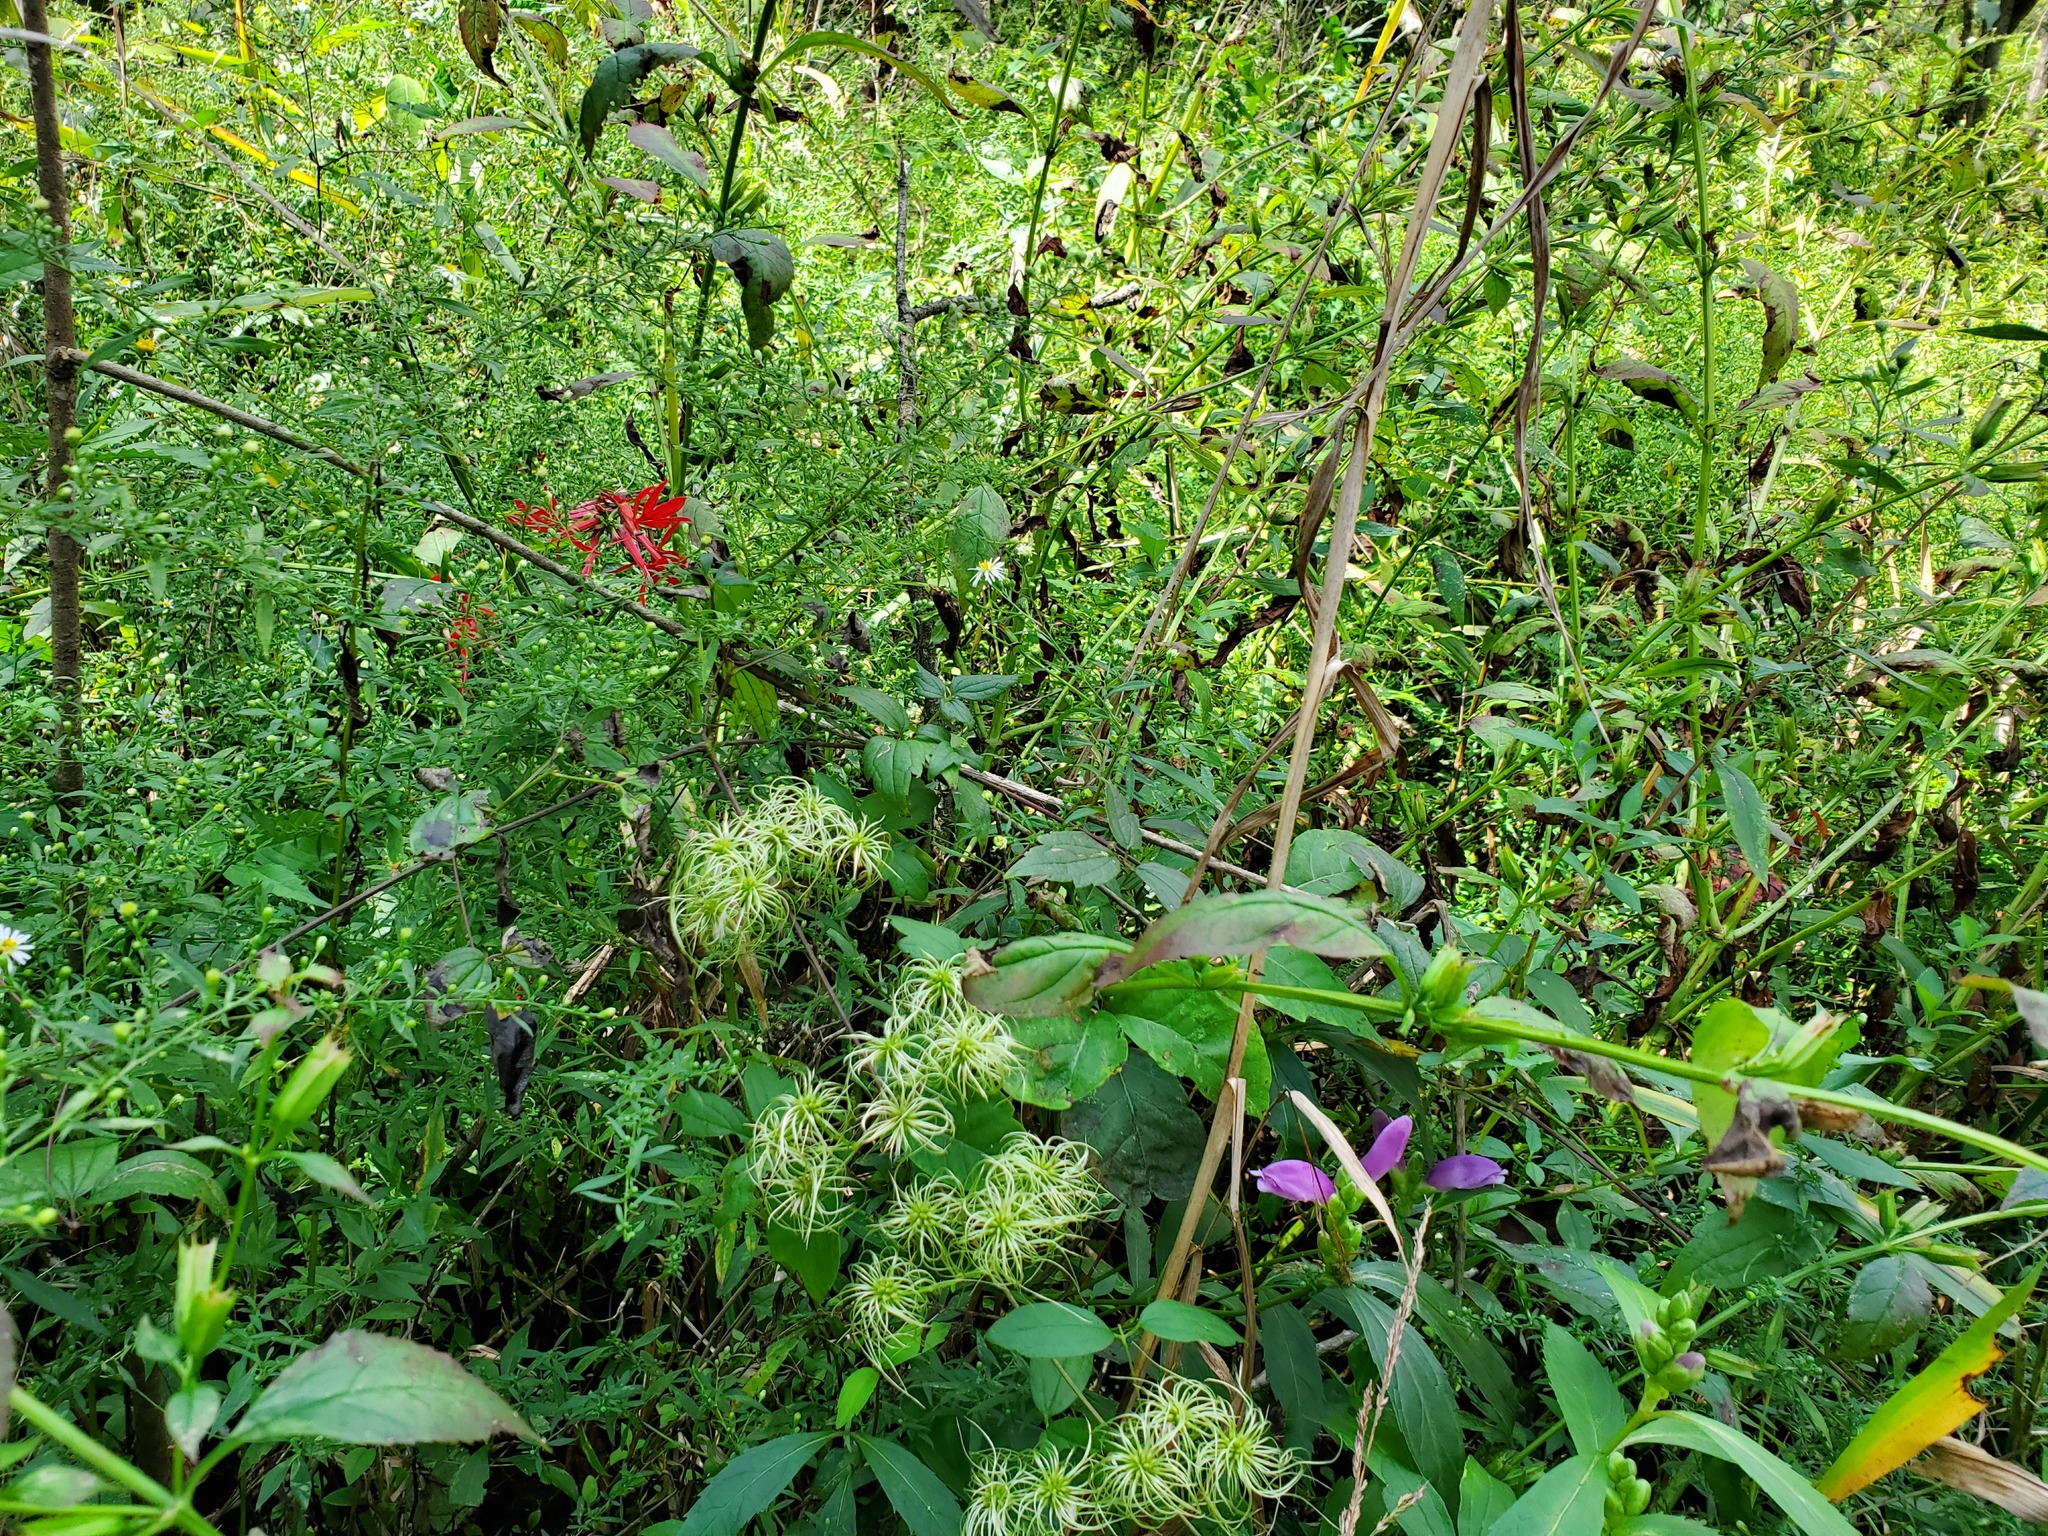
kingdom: Plantae
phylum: Tracheophyta
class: Magnoliopsida
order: Asterales
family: Campanulaceae
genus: Lobelia
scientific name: Lobelia cardinalis
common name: Cardinal flower
